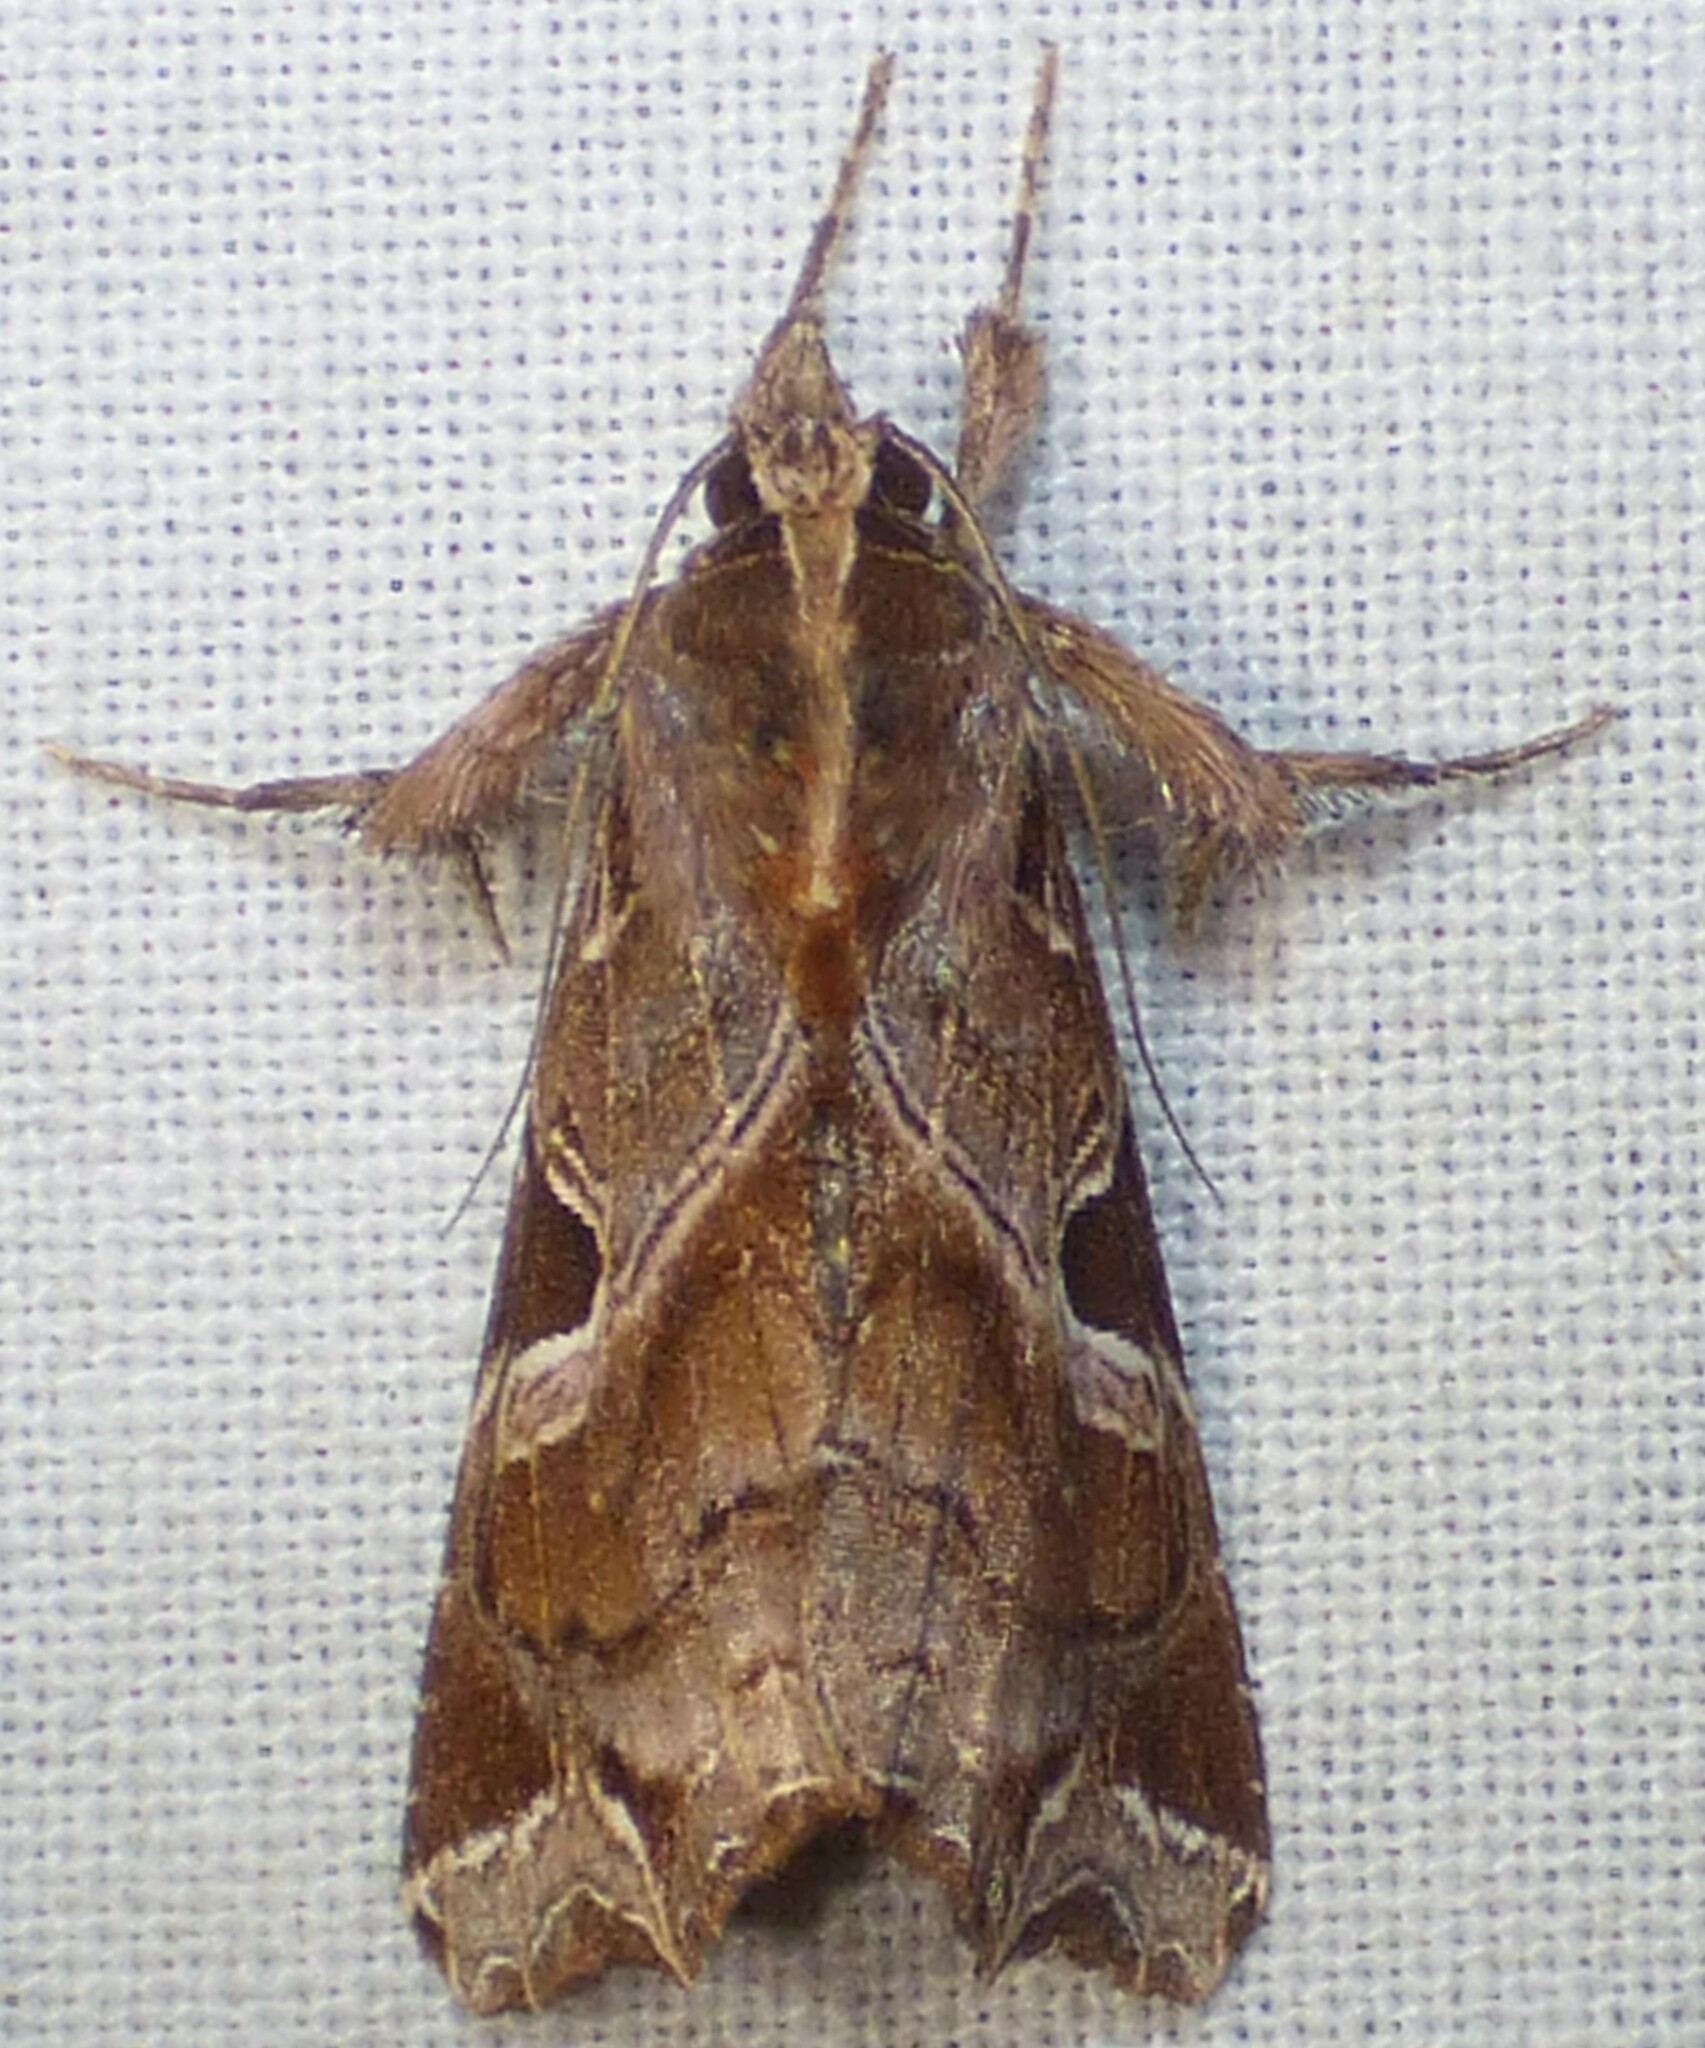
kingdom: Animalia
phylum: Arthropoda
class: Insecta
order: Lepidoptera
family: Noctuidae
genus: Callopistria
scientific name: Callopistria floridensis
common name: Florida fern moth
